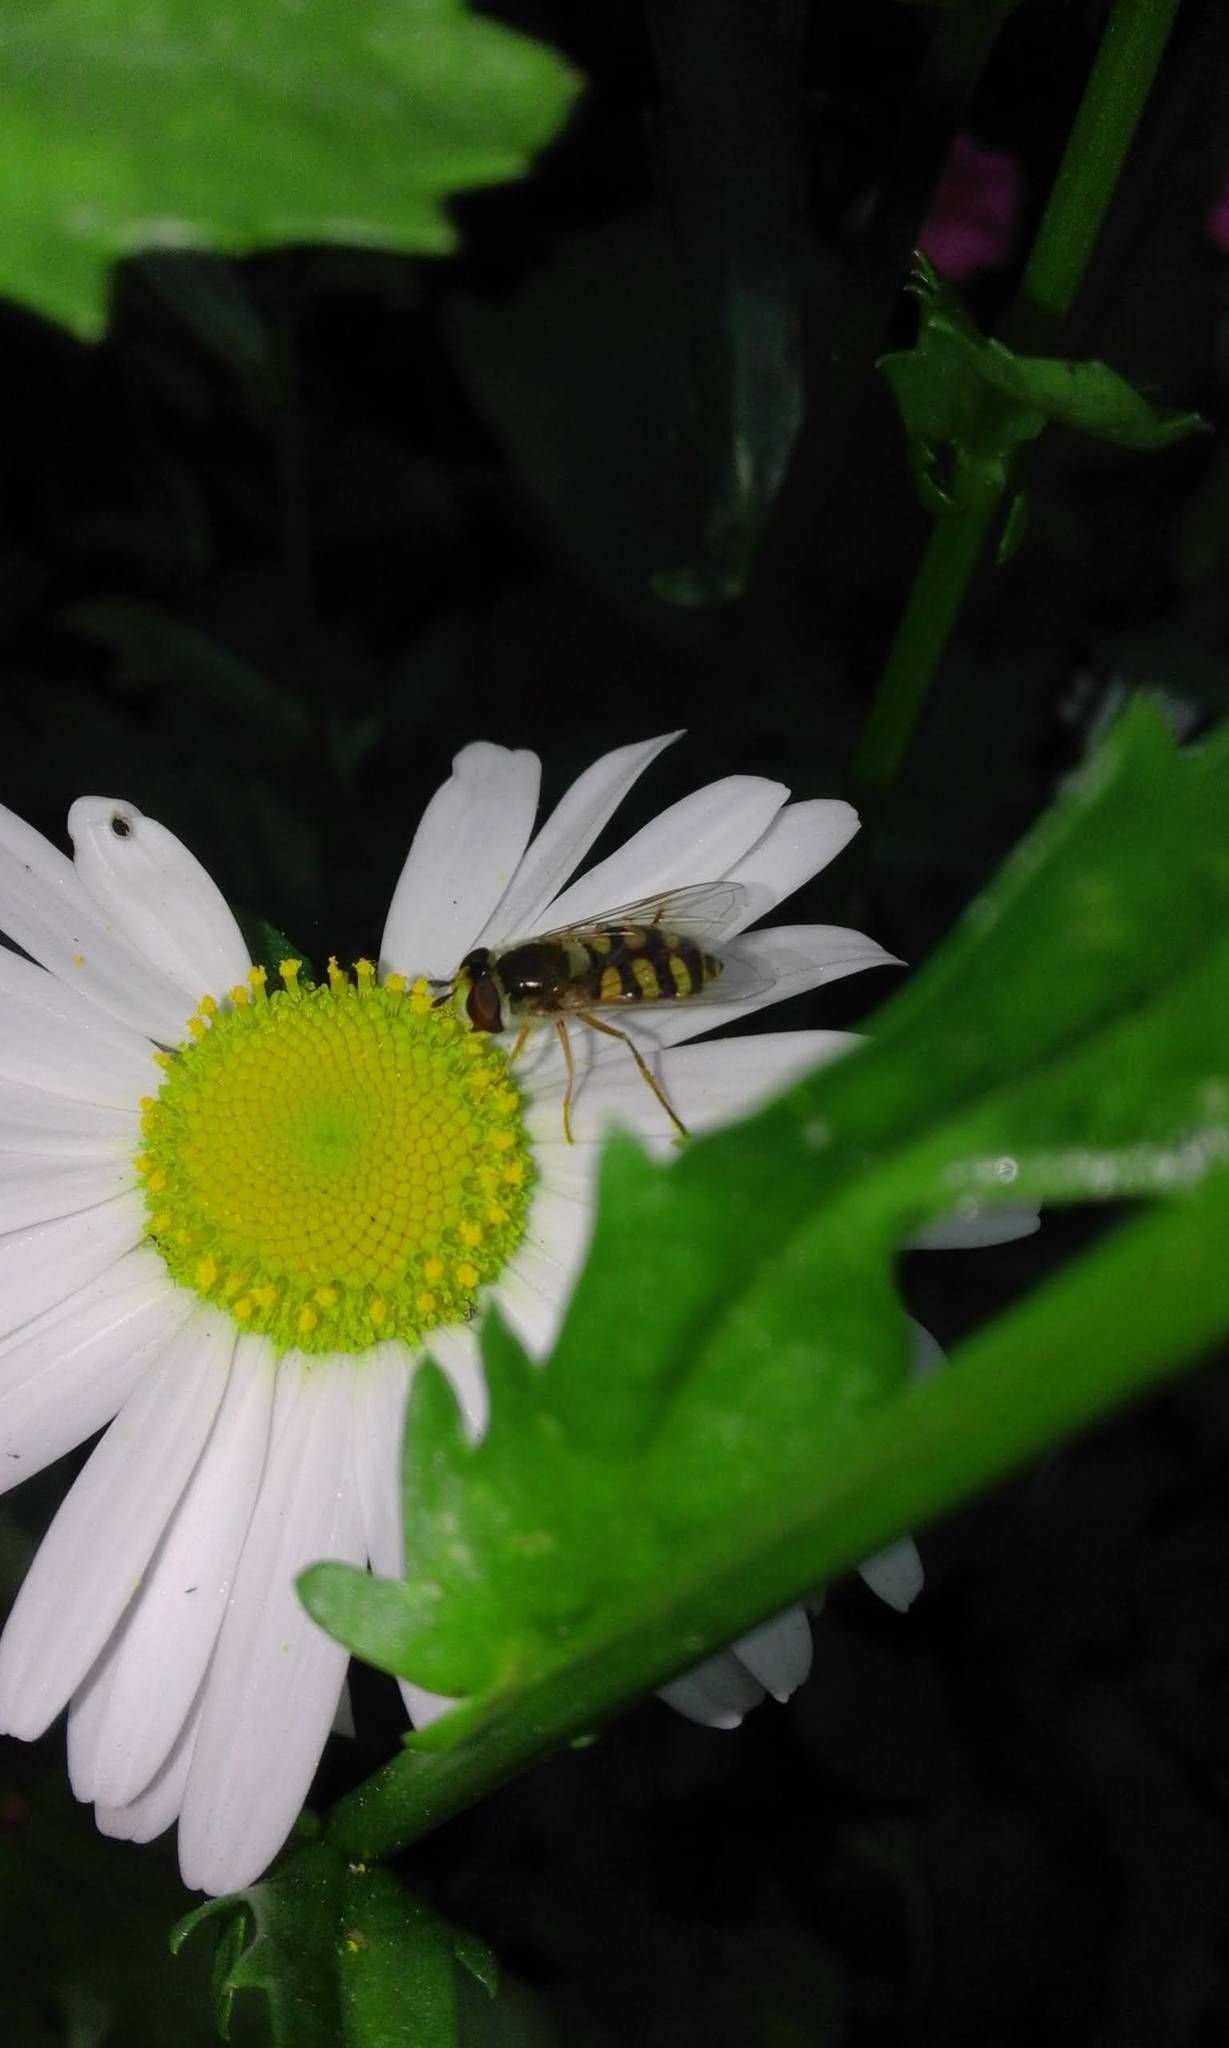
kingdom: Animalia
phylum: Arthropoda
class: Insecta
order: Diptera
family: Syrphidae
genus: Eupeodes
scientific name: Eupeodes corollae
